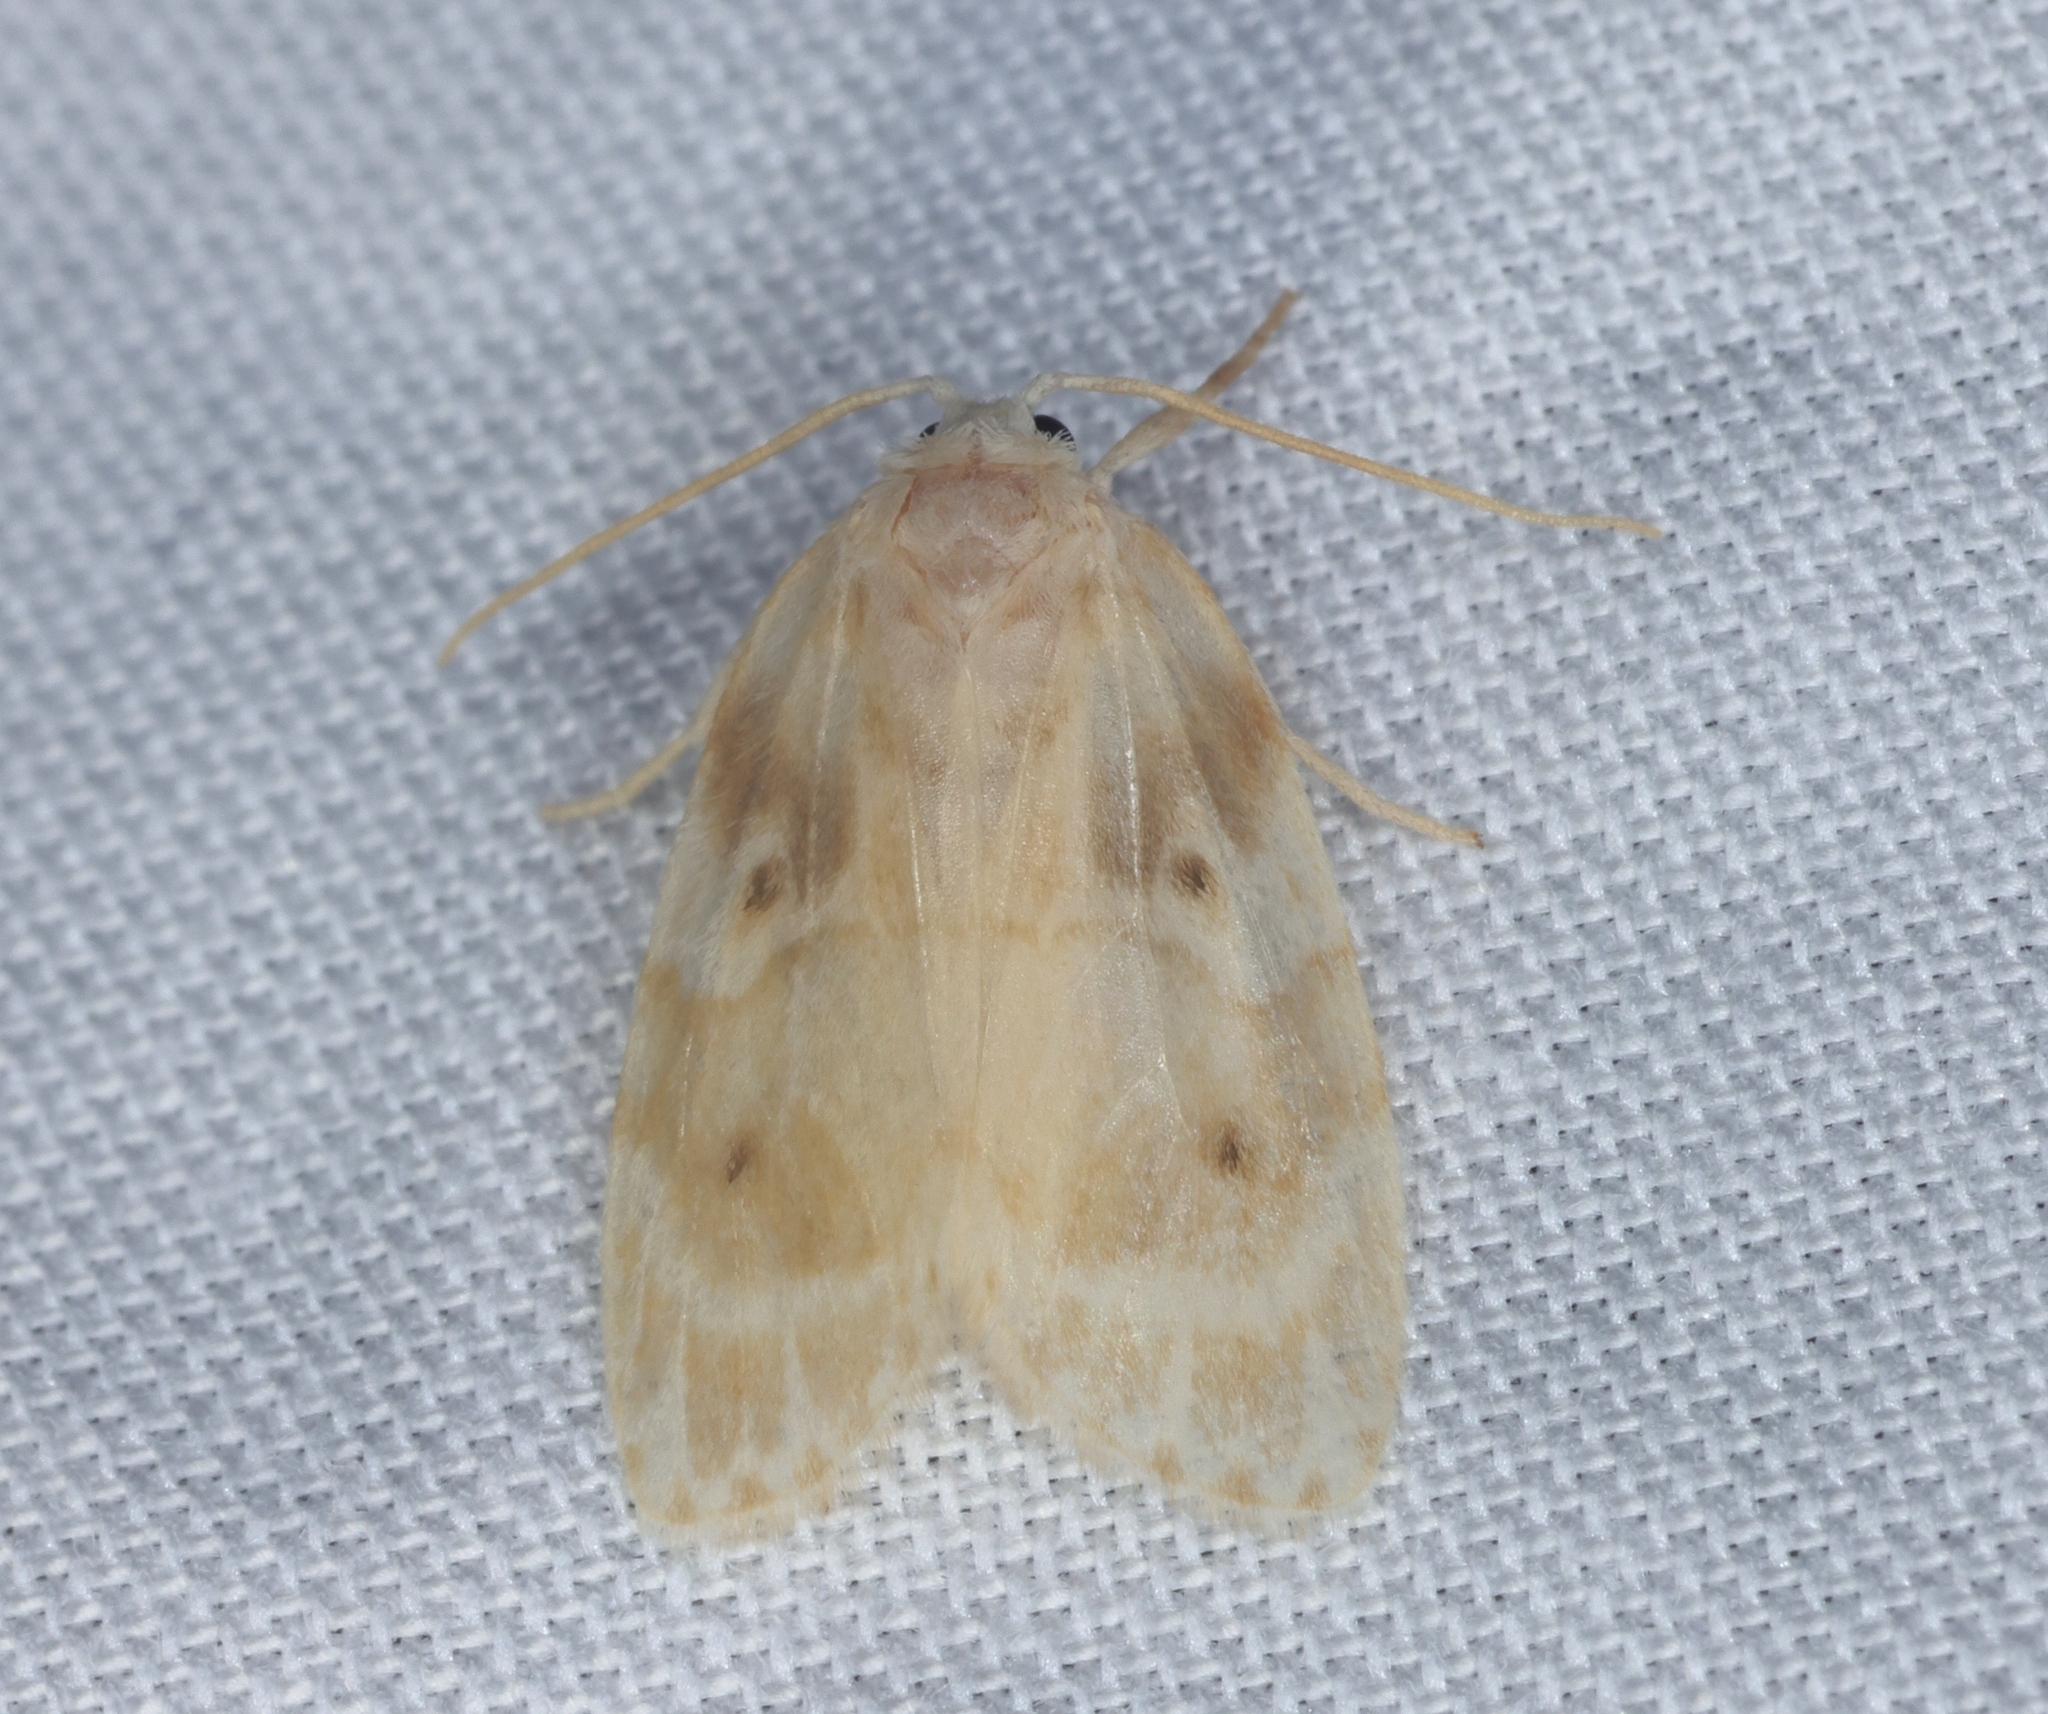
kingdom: Animalia
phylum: Arthropoda
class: Insecta
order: Lepidoptera
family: Erebidae
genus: Schistophleps
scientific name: Schistophleps bipuncta
